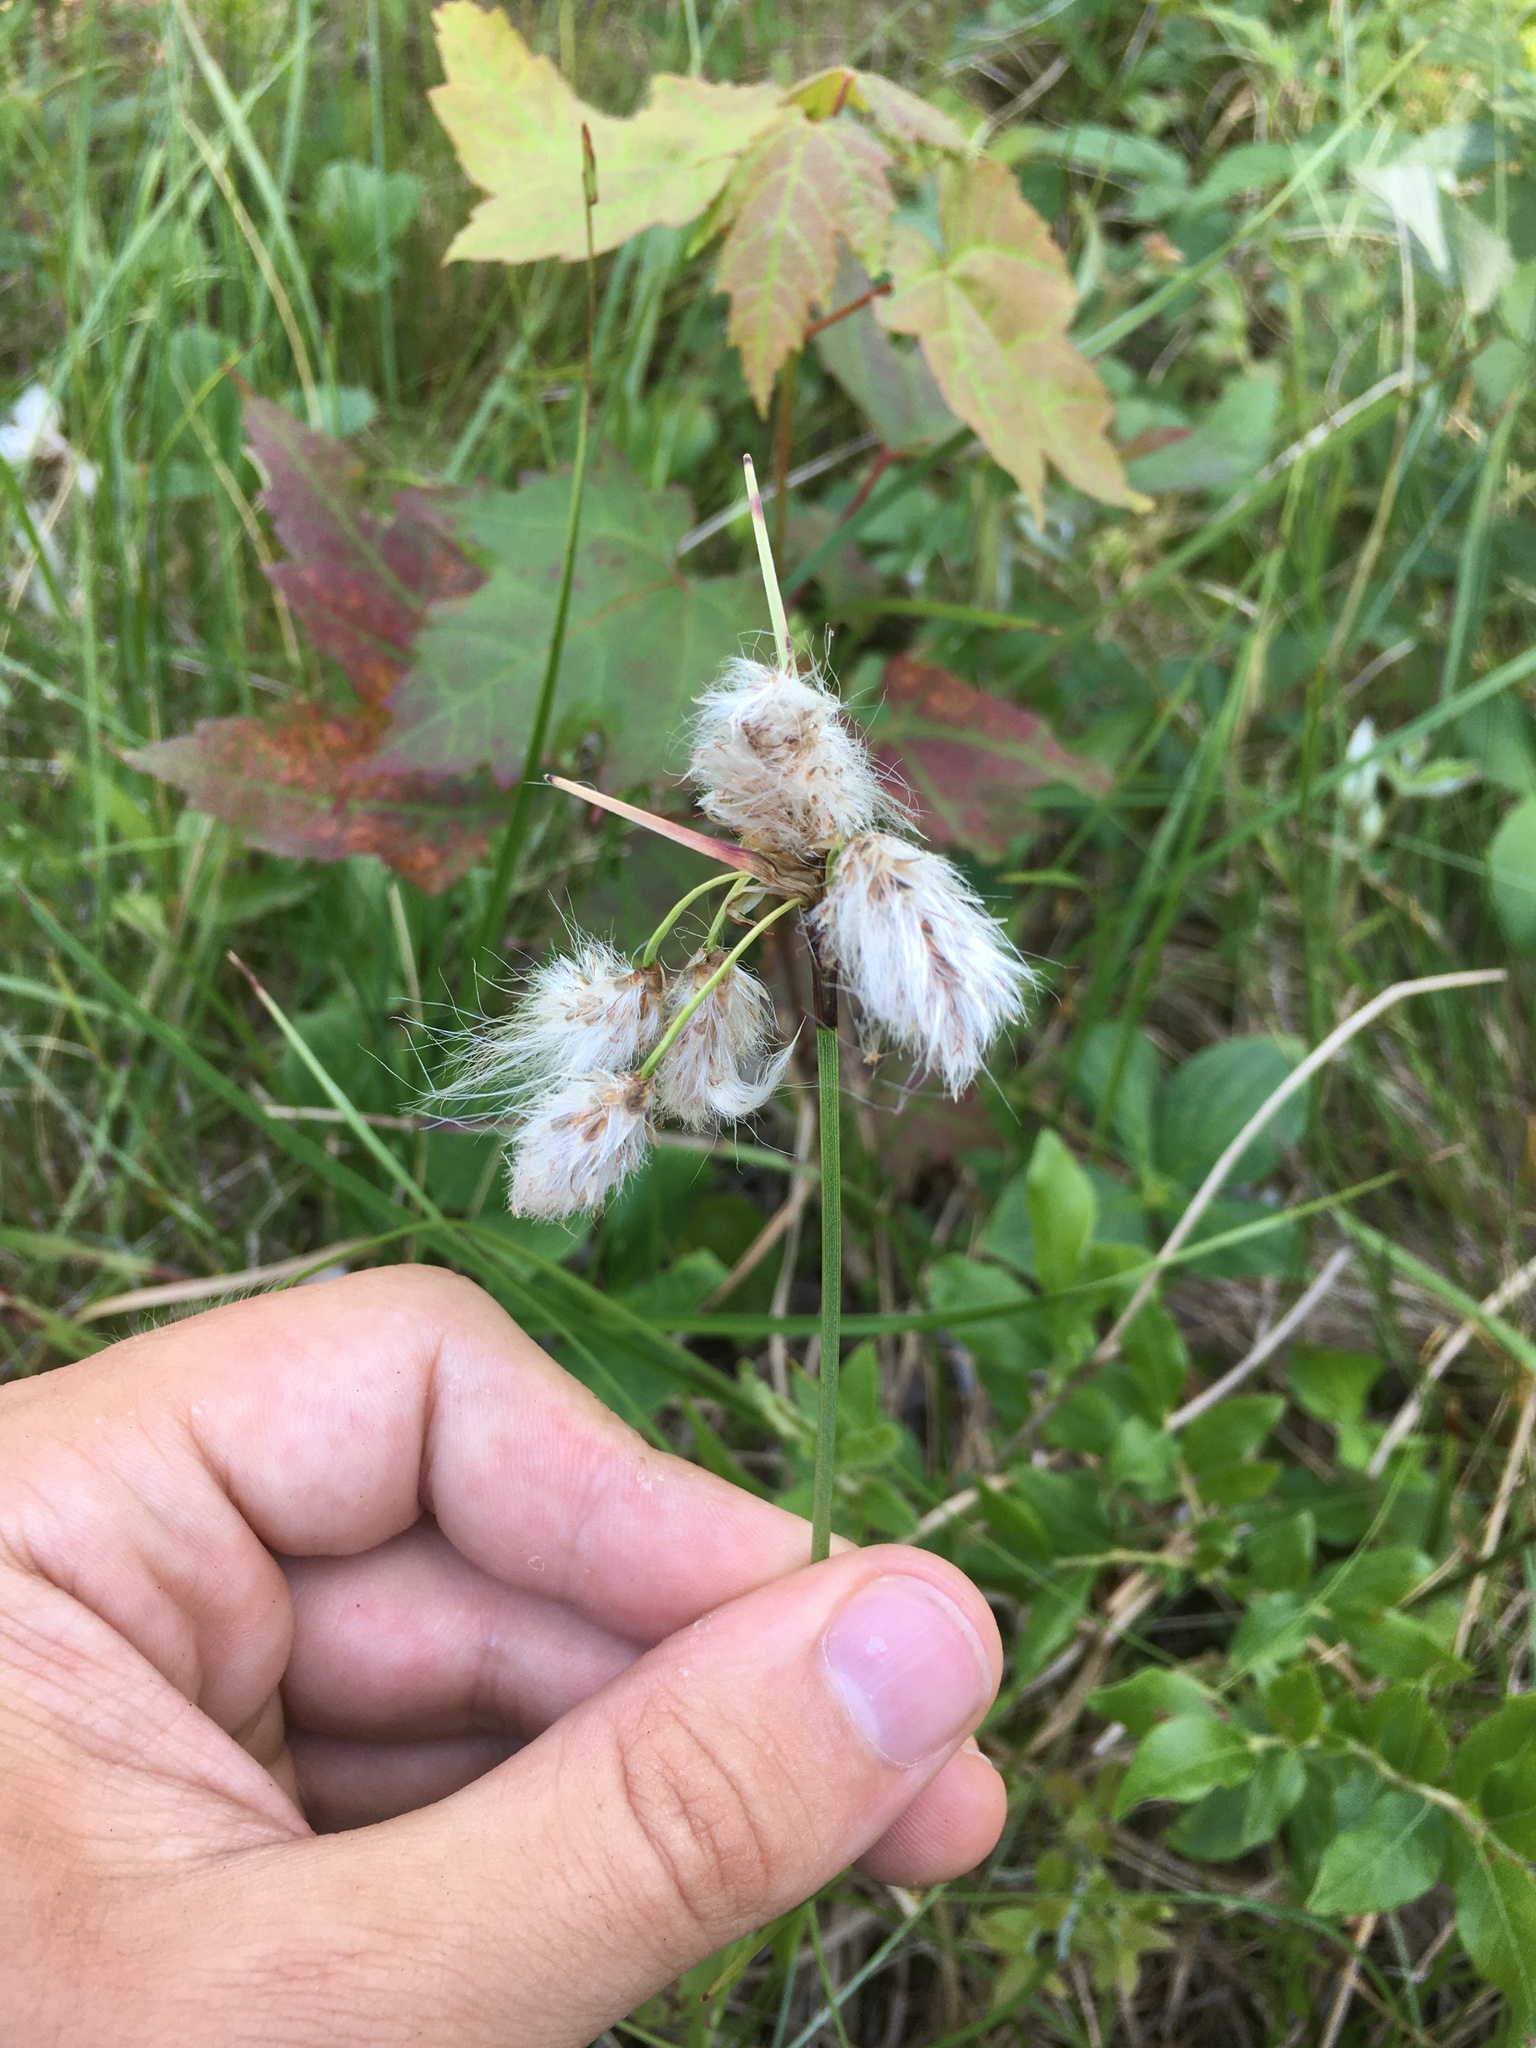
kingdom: Plantae
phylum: Tracheophyta
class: Liliopsida
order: Poales
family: Cyperaceae
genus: Eriophorum
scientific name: Eriophorum angustifolium
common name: Common cottongrass
